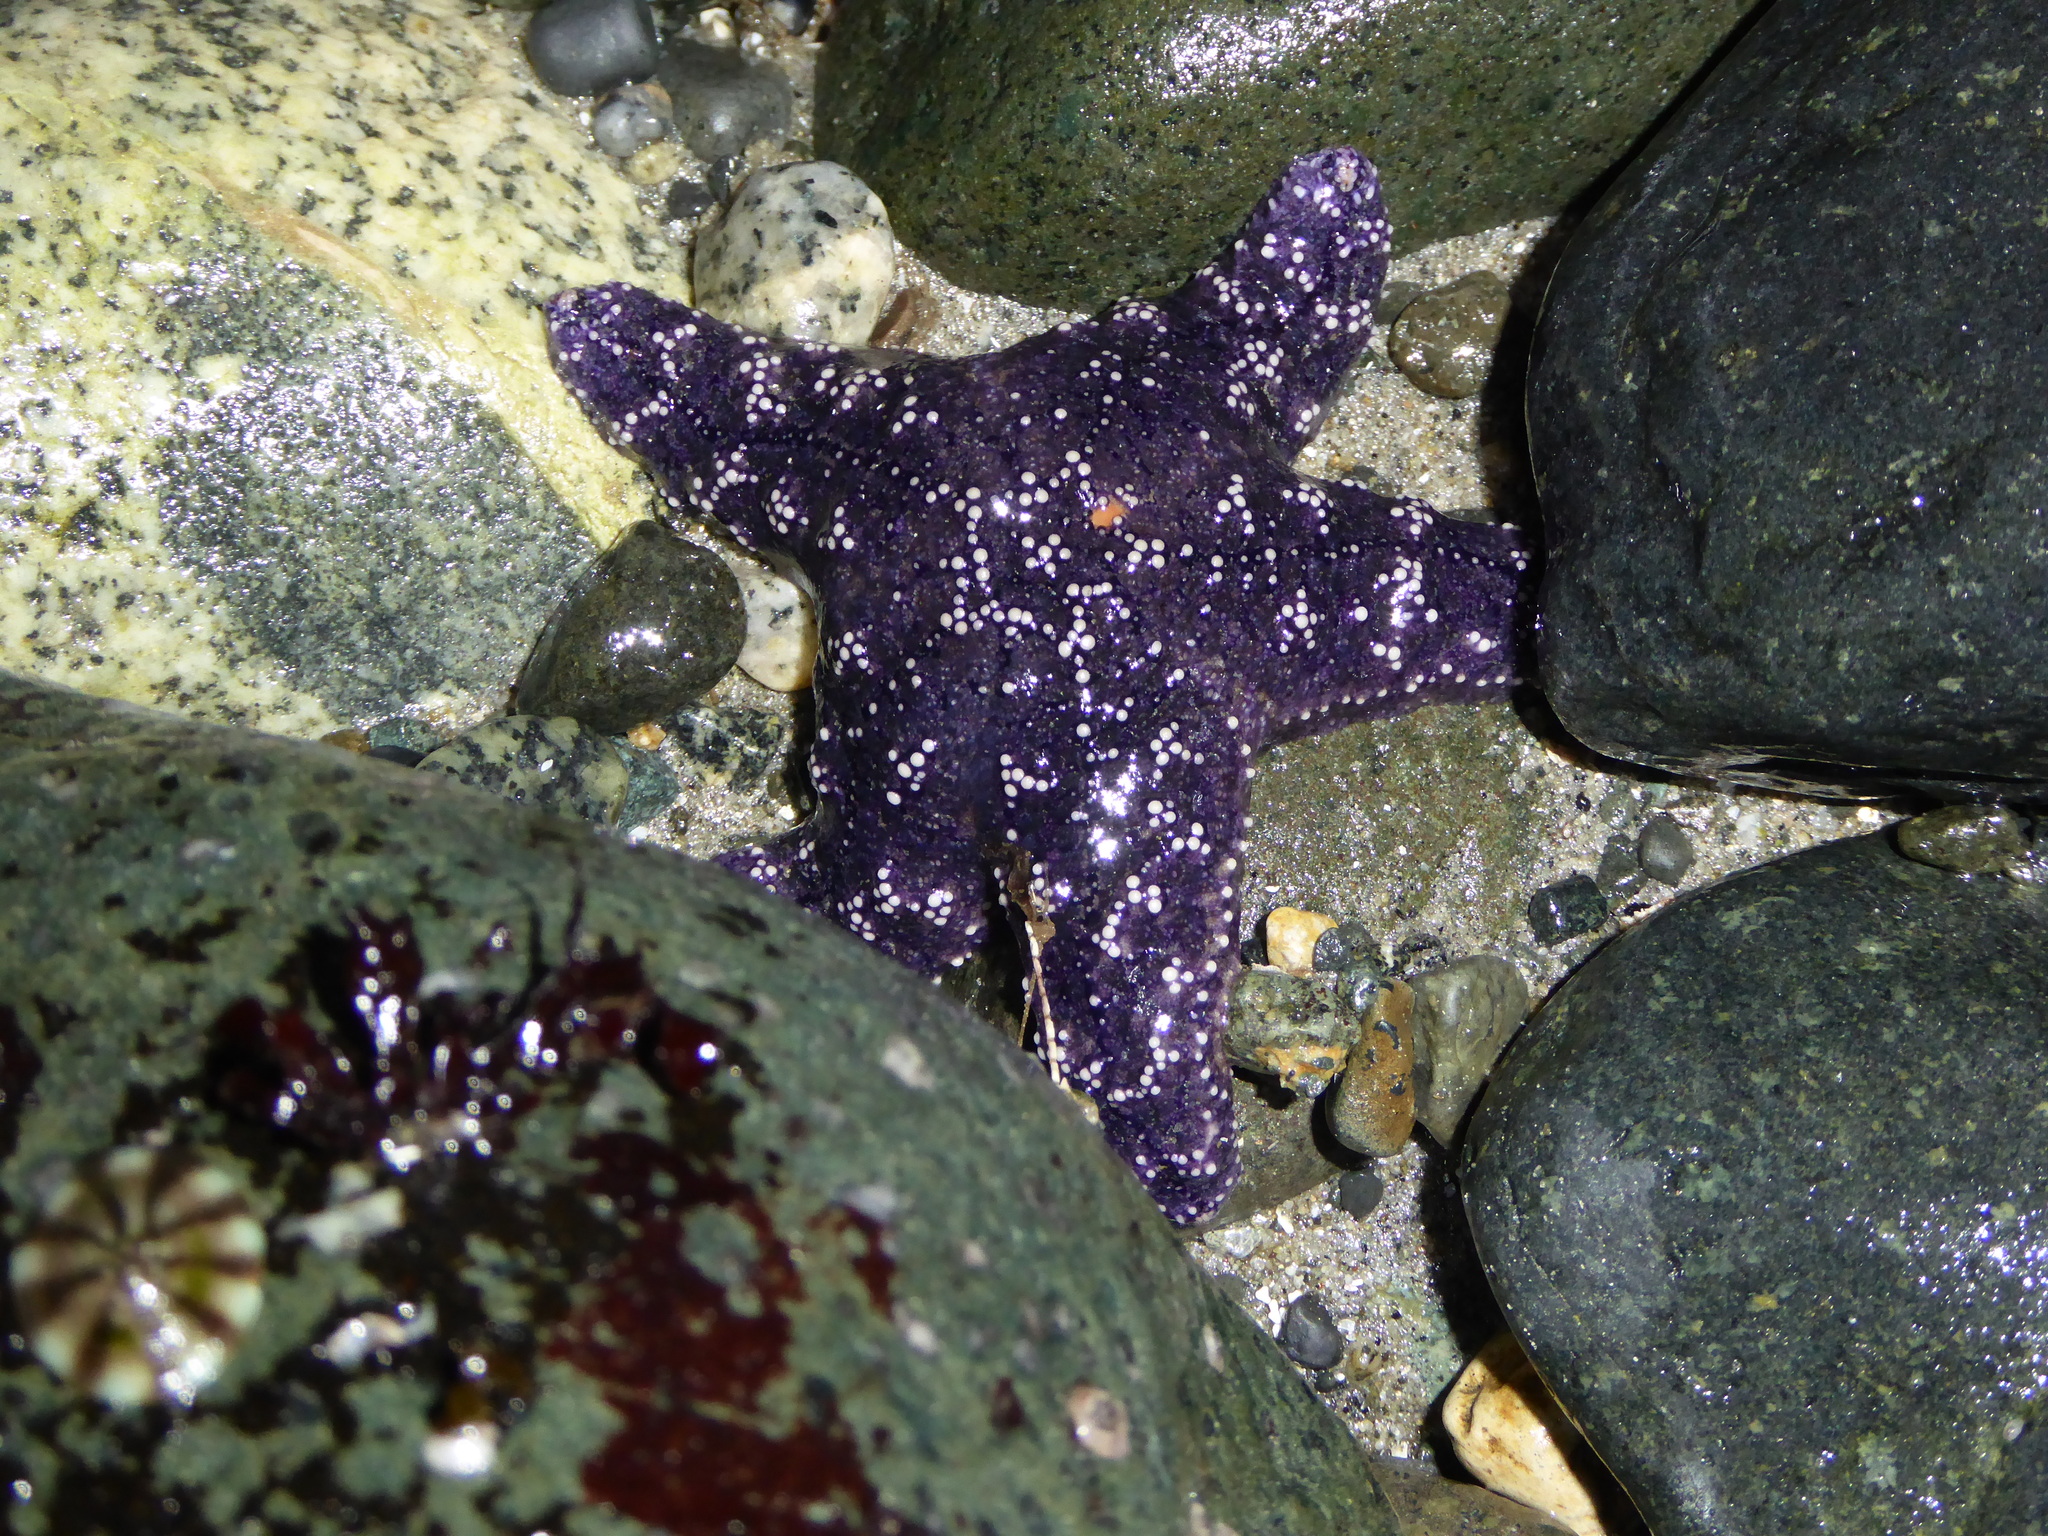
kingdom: Animalia
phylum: Echinodermata
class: Asteroidea
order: Forcipulatida
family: Asteriidae
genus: Pisaster
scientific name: Pisaster ochraceus
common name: Ochre stars
